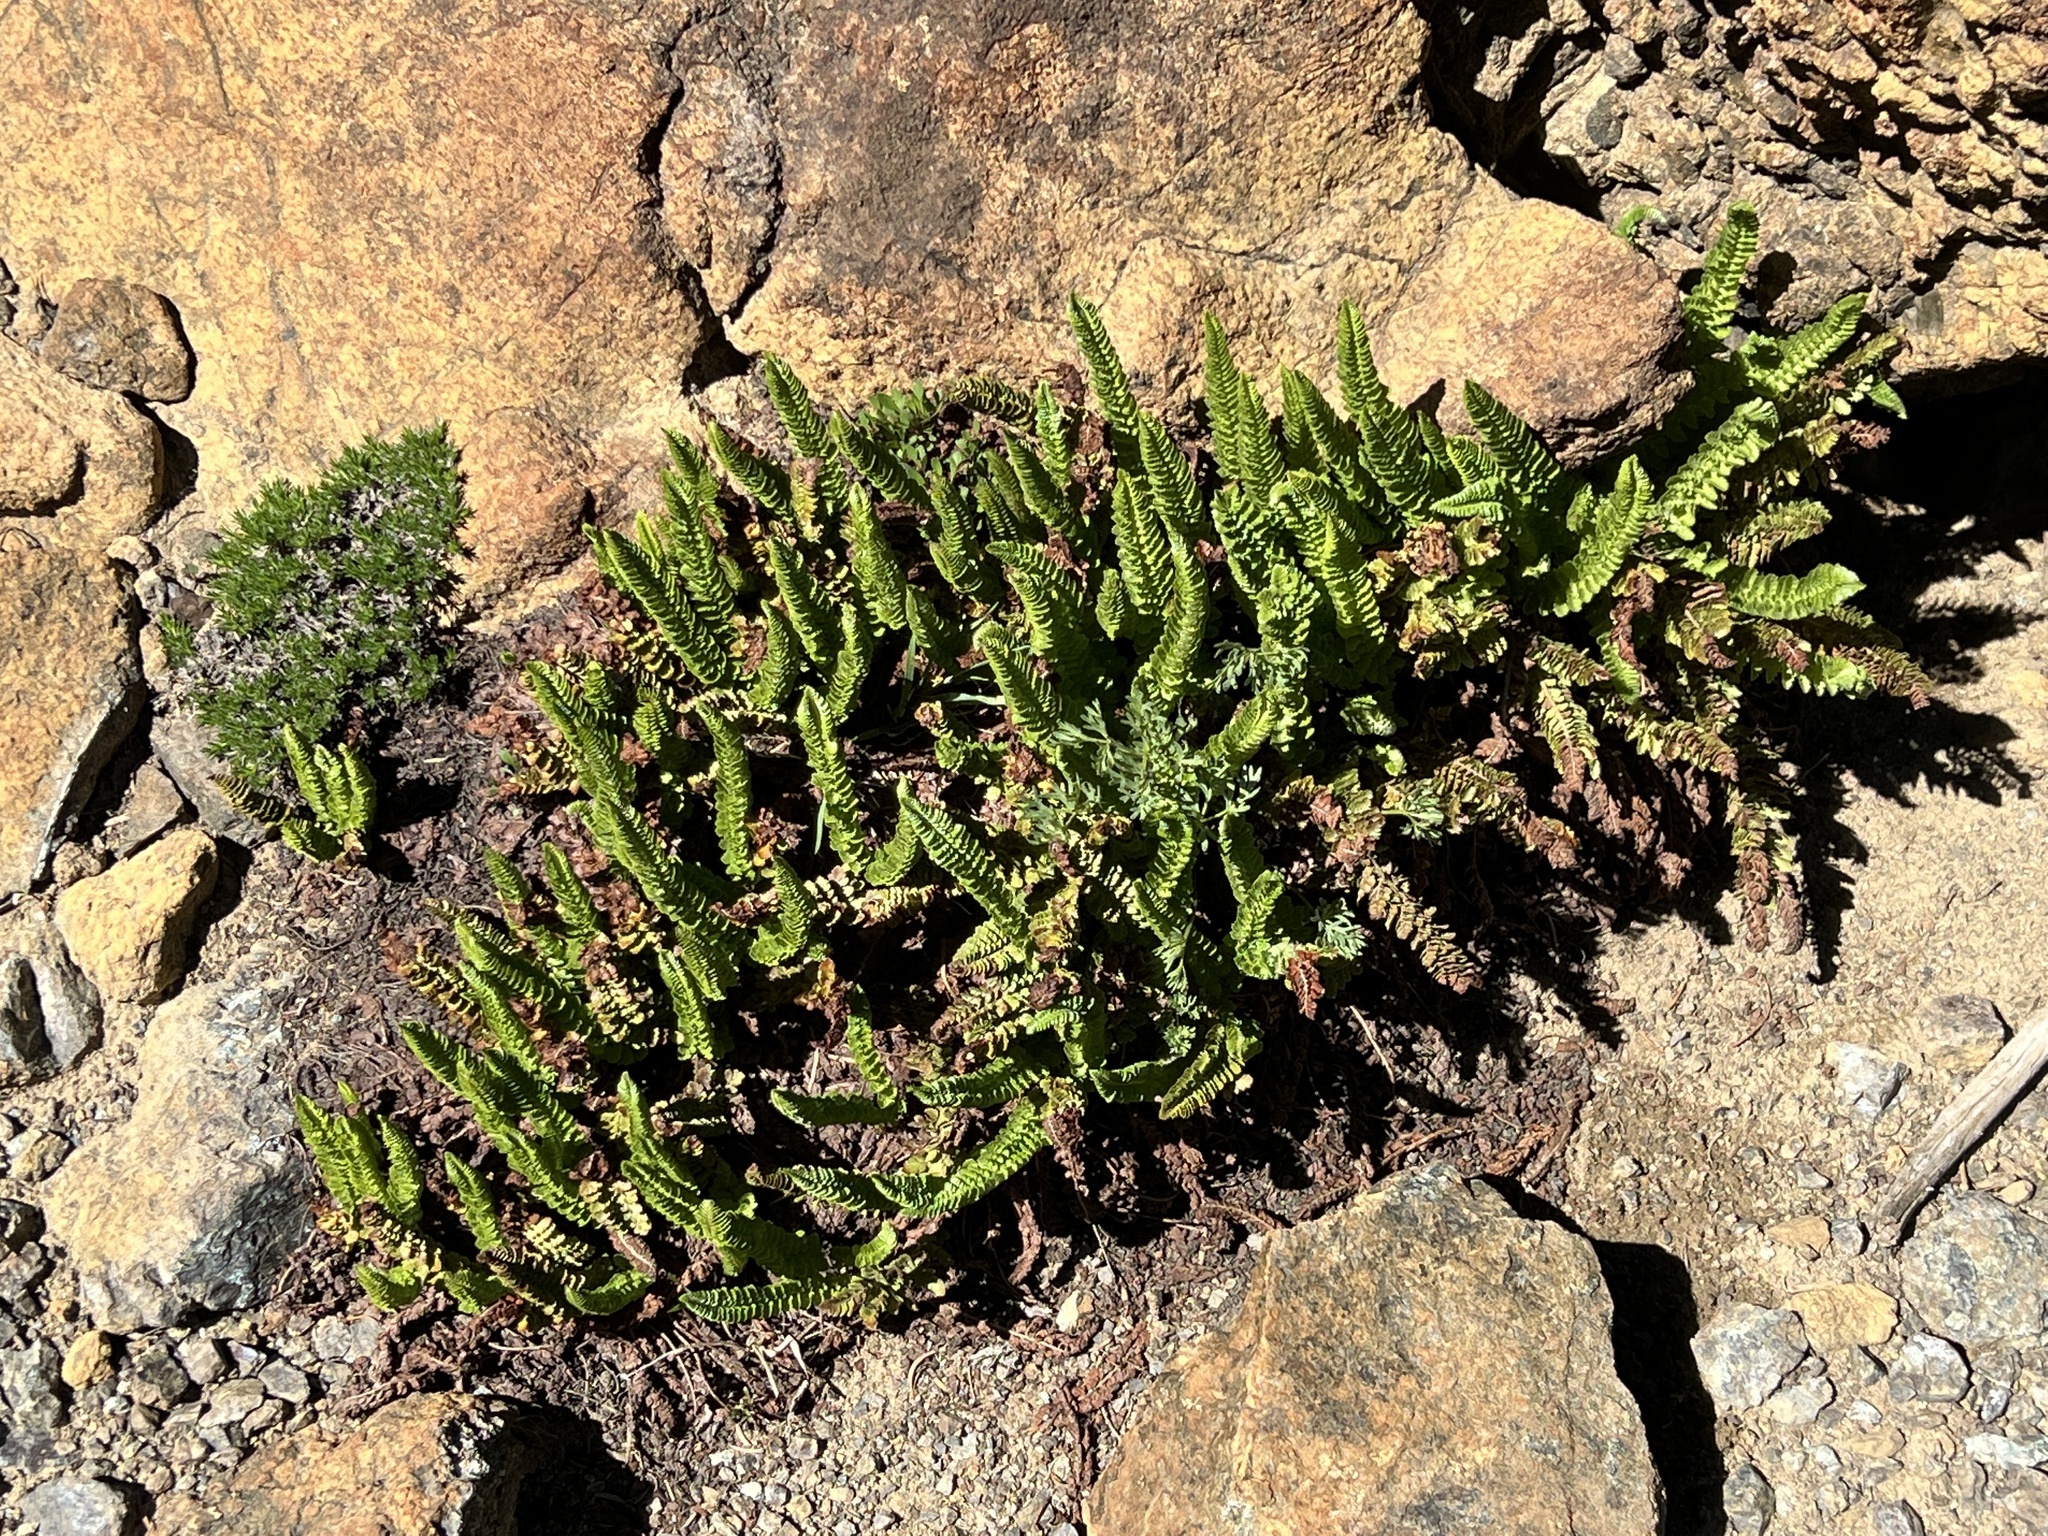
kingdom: Plantae
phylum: Tracheophyta
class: Polypodiopsida
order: Polypodiales
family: Dryopteridaceae
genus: Polystichum
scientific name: Polystichum lemmonii
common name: Lemmon's holly fern
